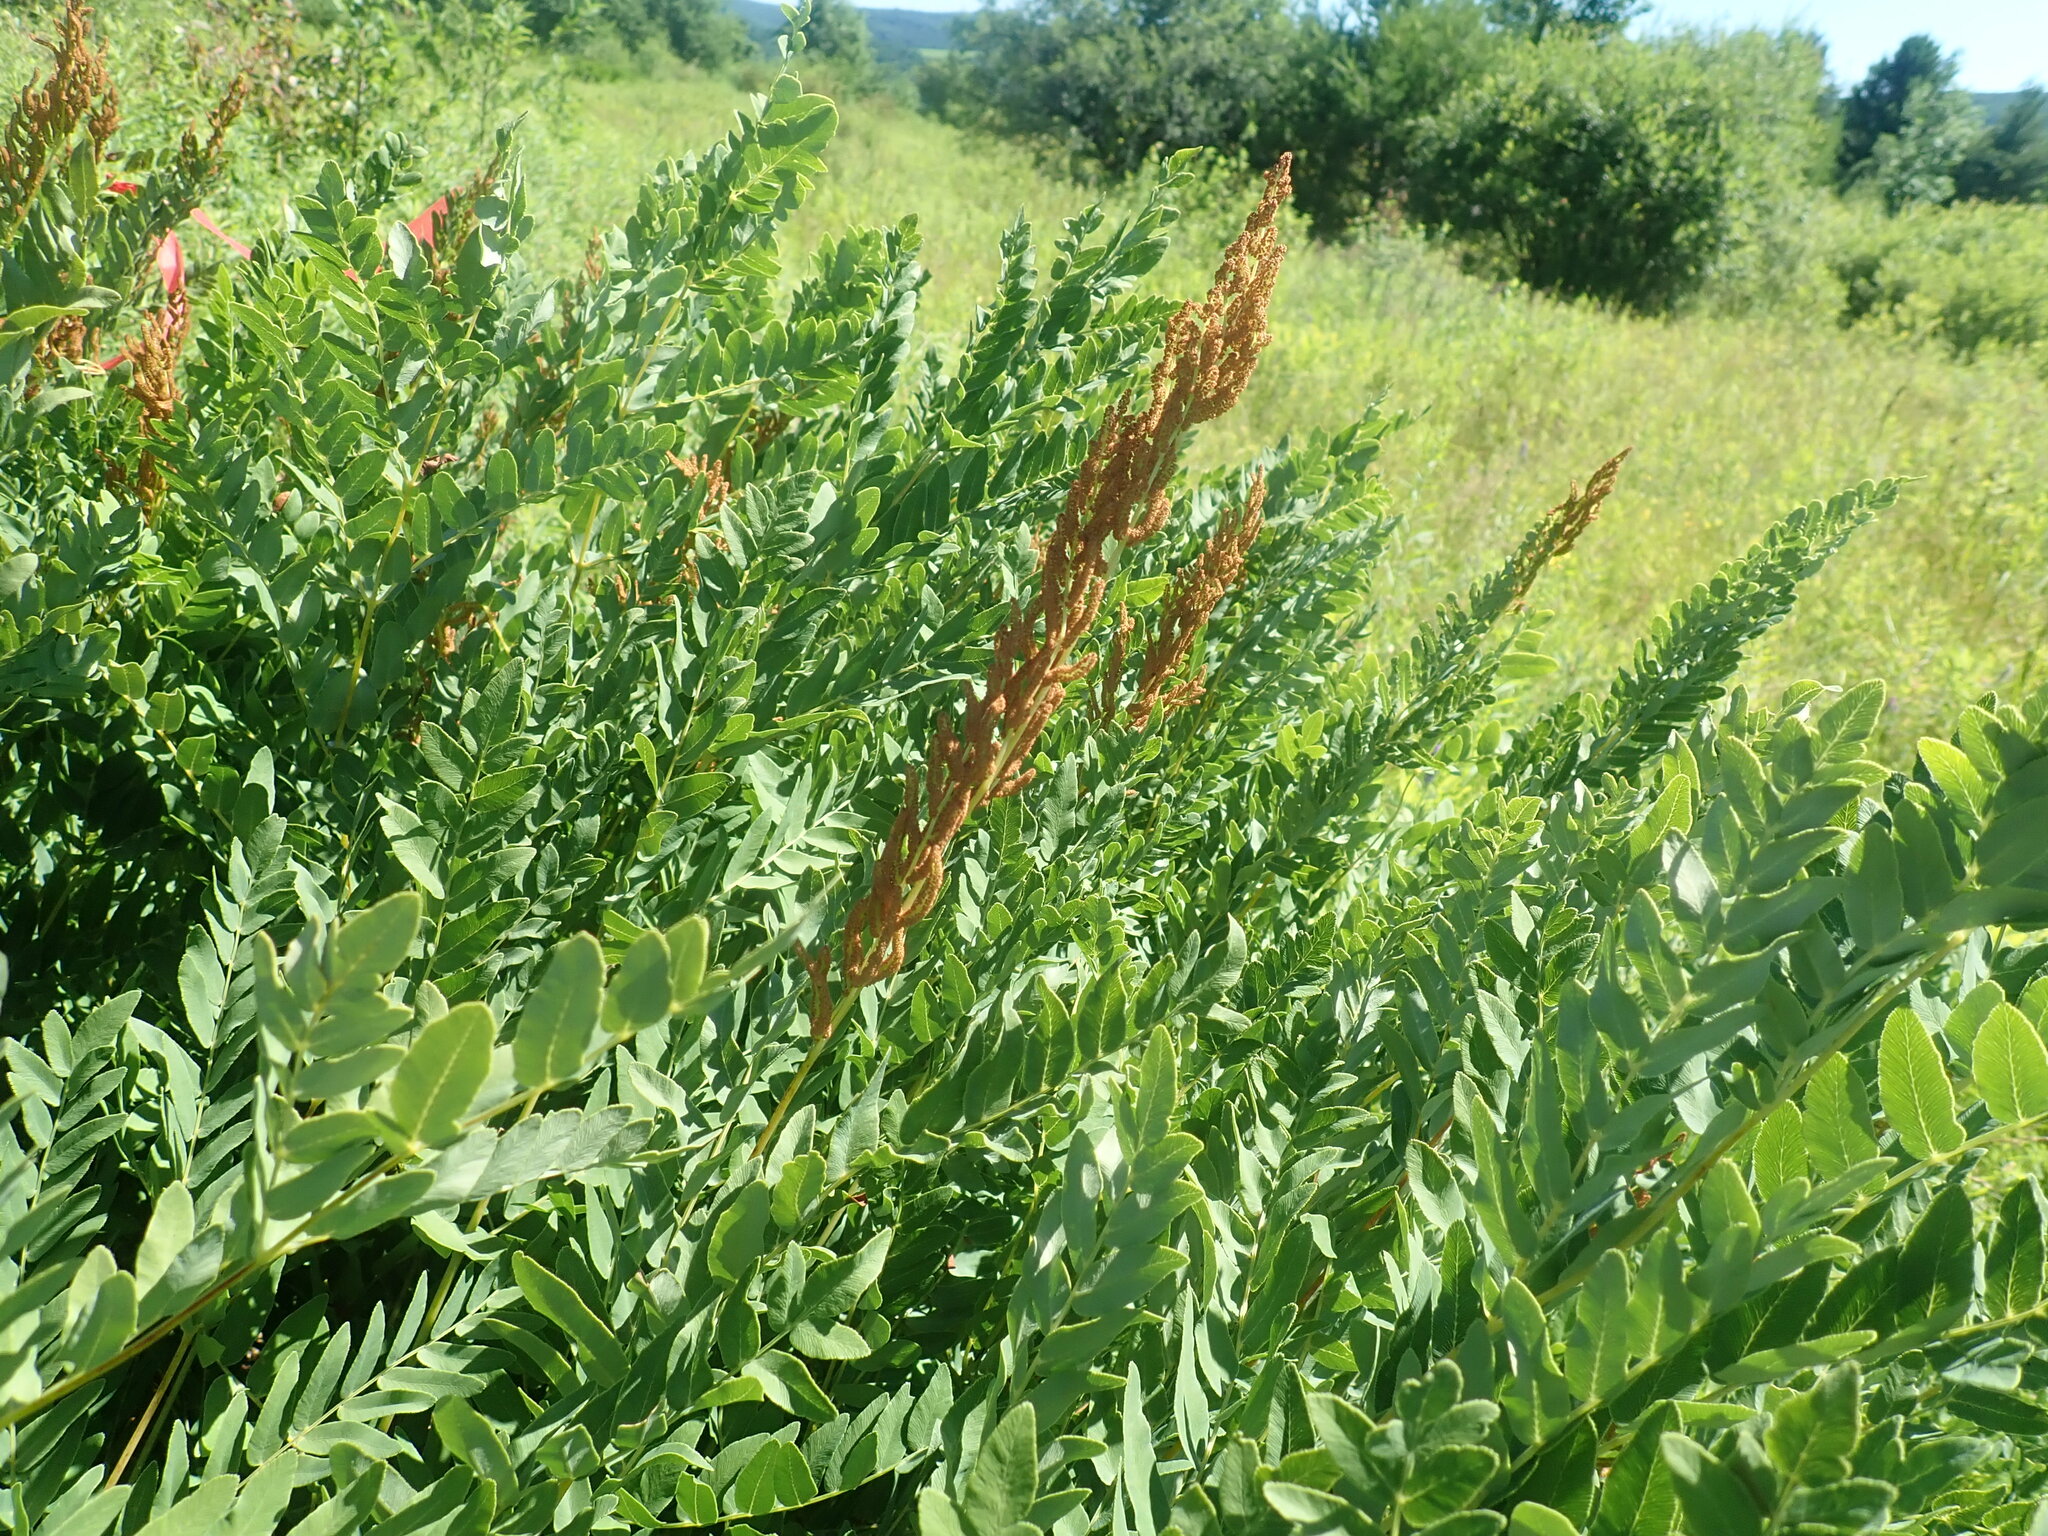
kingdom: Plantae
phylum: Tracheophyta
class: Polypodiopsida
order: Osmundales
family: Osmundaceae
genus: Osmunda
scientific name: Osmunda spectabilis
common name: American royal fern
